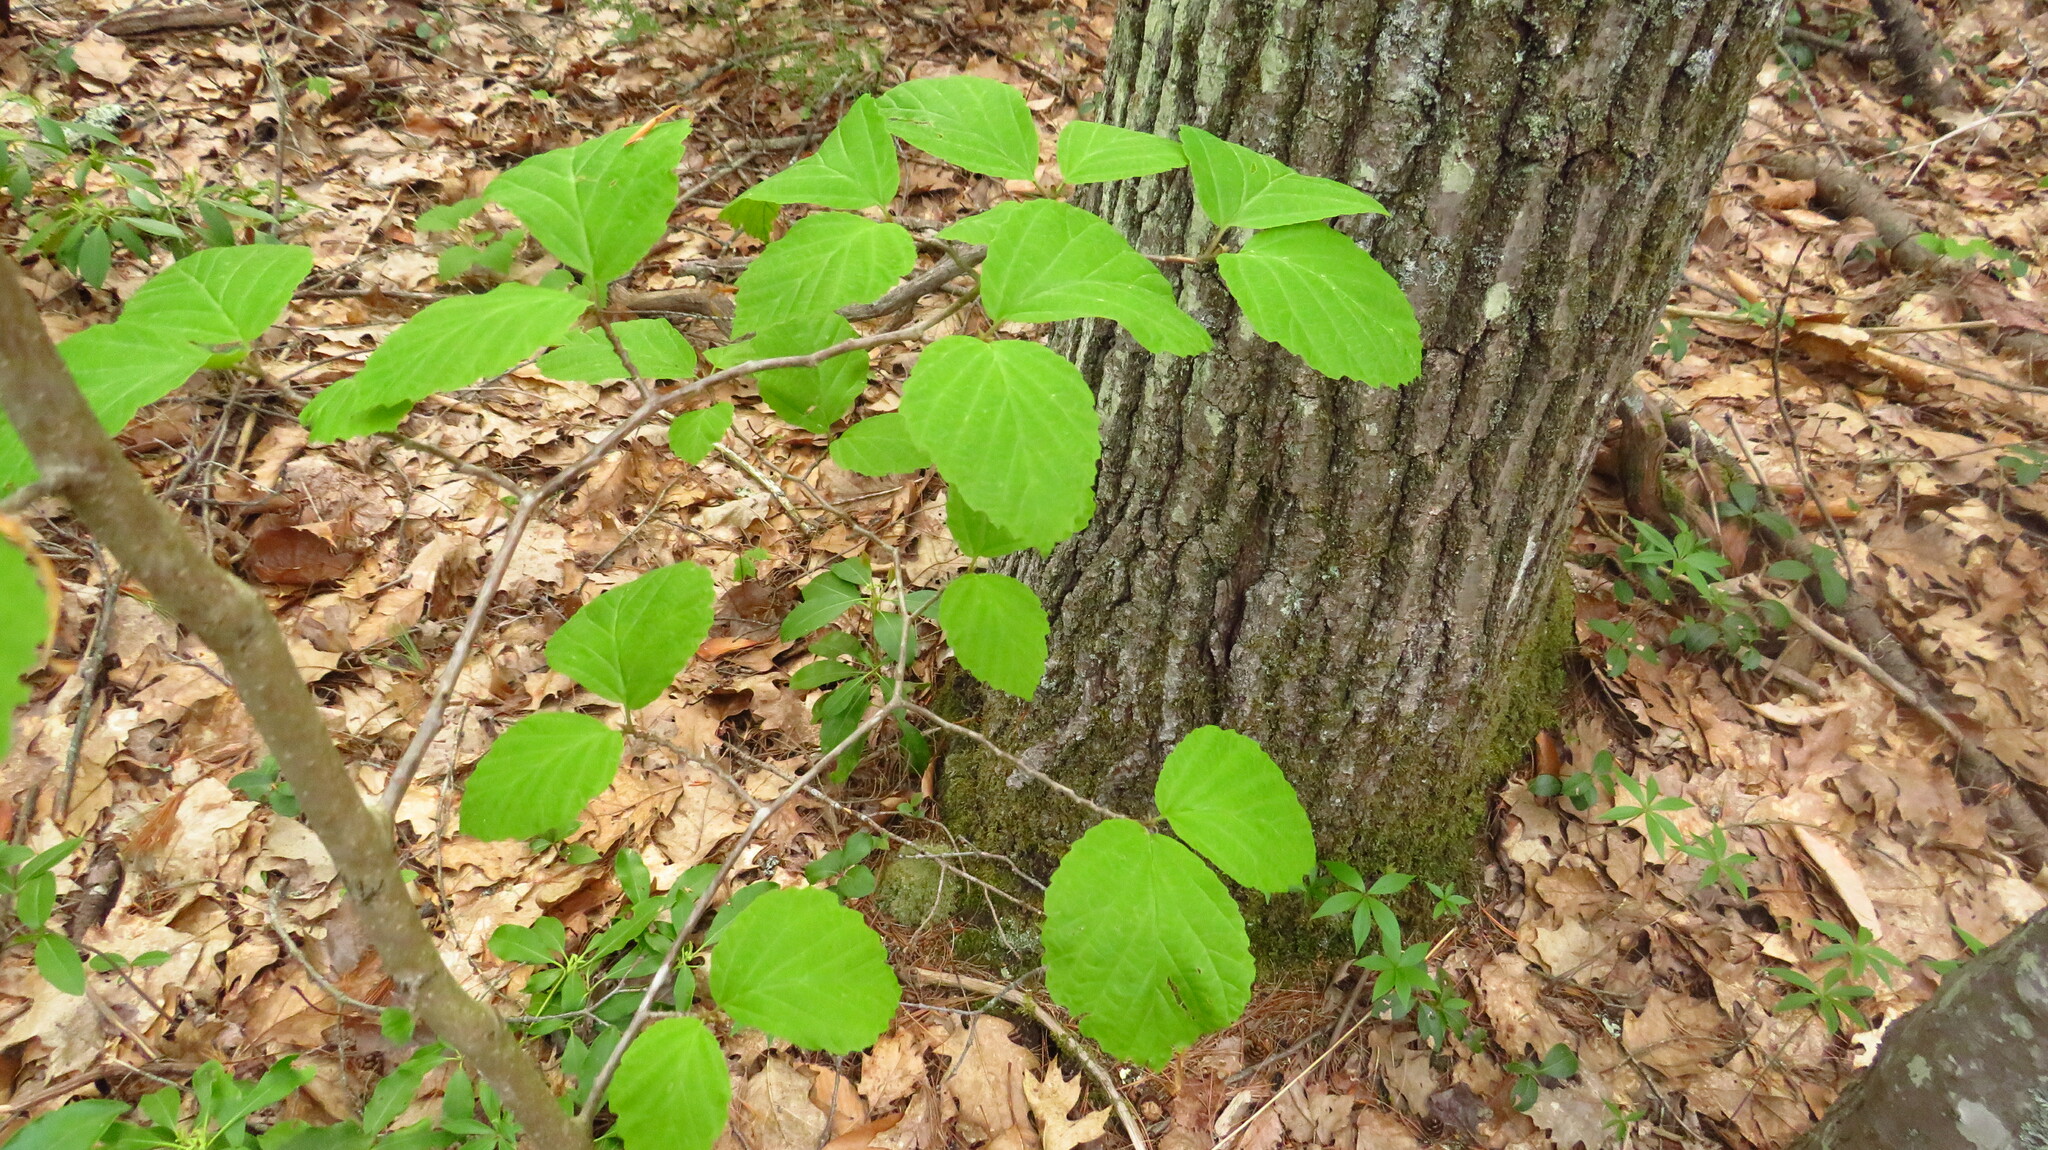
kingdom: Plantae
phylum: Tracheophyta
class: Magnoliopsida
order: Saxifragales
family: Hamamelidaceae
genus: Hamamelis
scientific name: Hamamelis virginiana
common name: Witch-hazel
